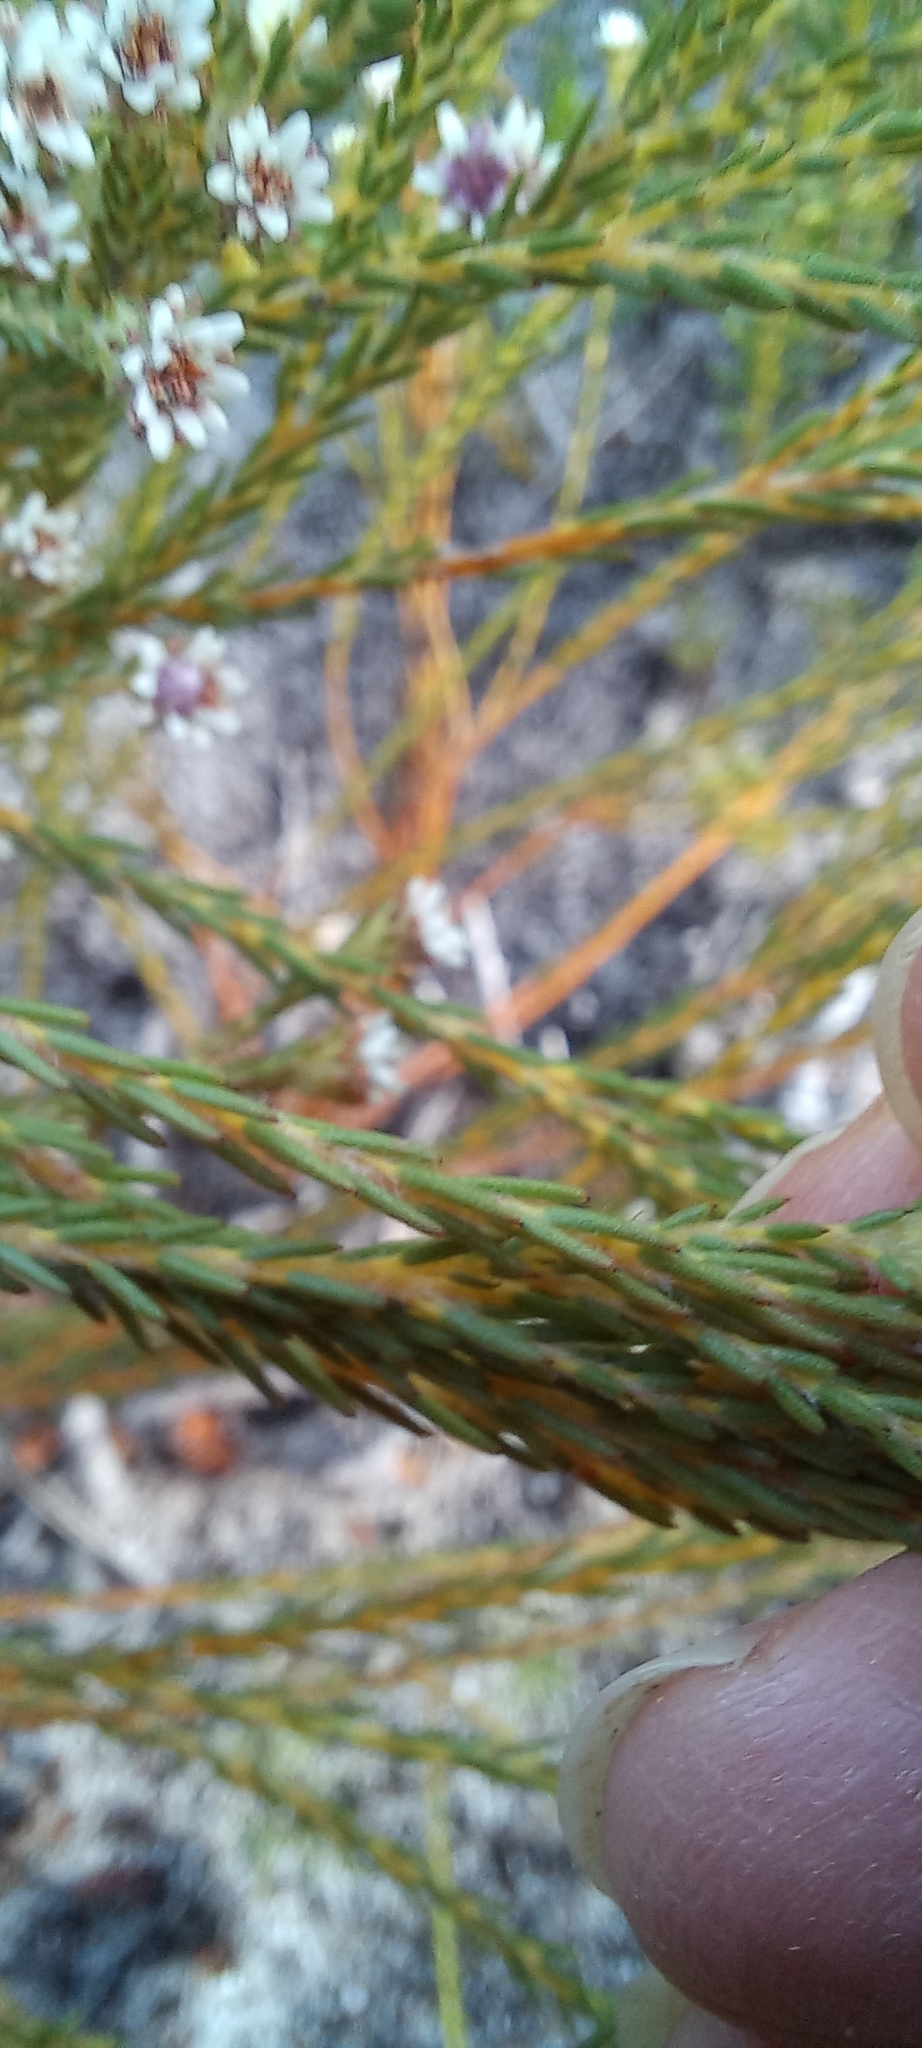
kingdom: Plantae
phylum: Tracheophyta
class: Magnoliopsida
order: Bruniales
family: Bruniaceae
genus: Staavia
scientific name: Staavia radiata
